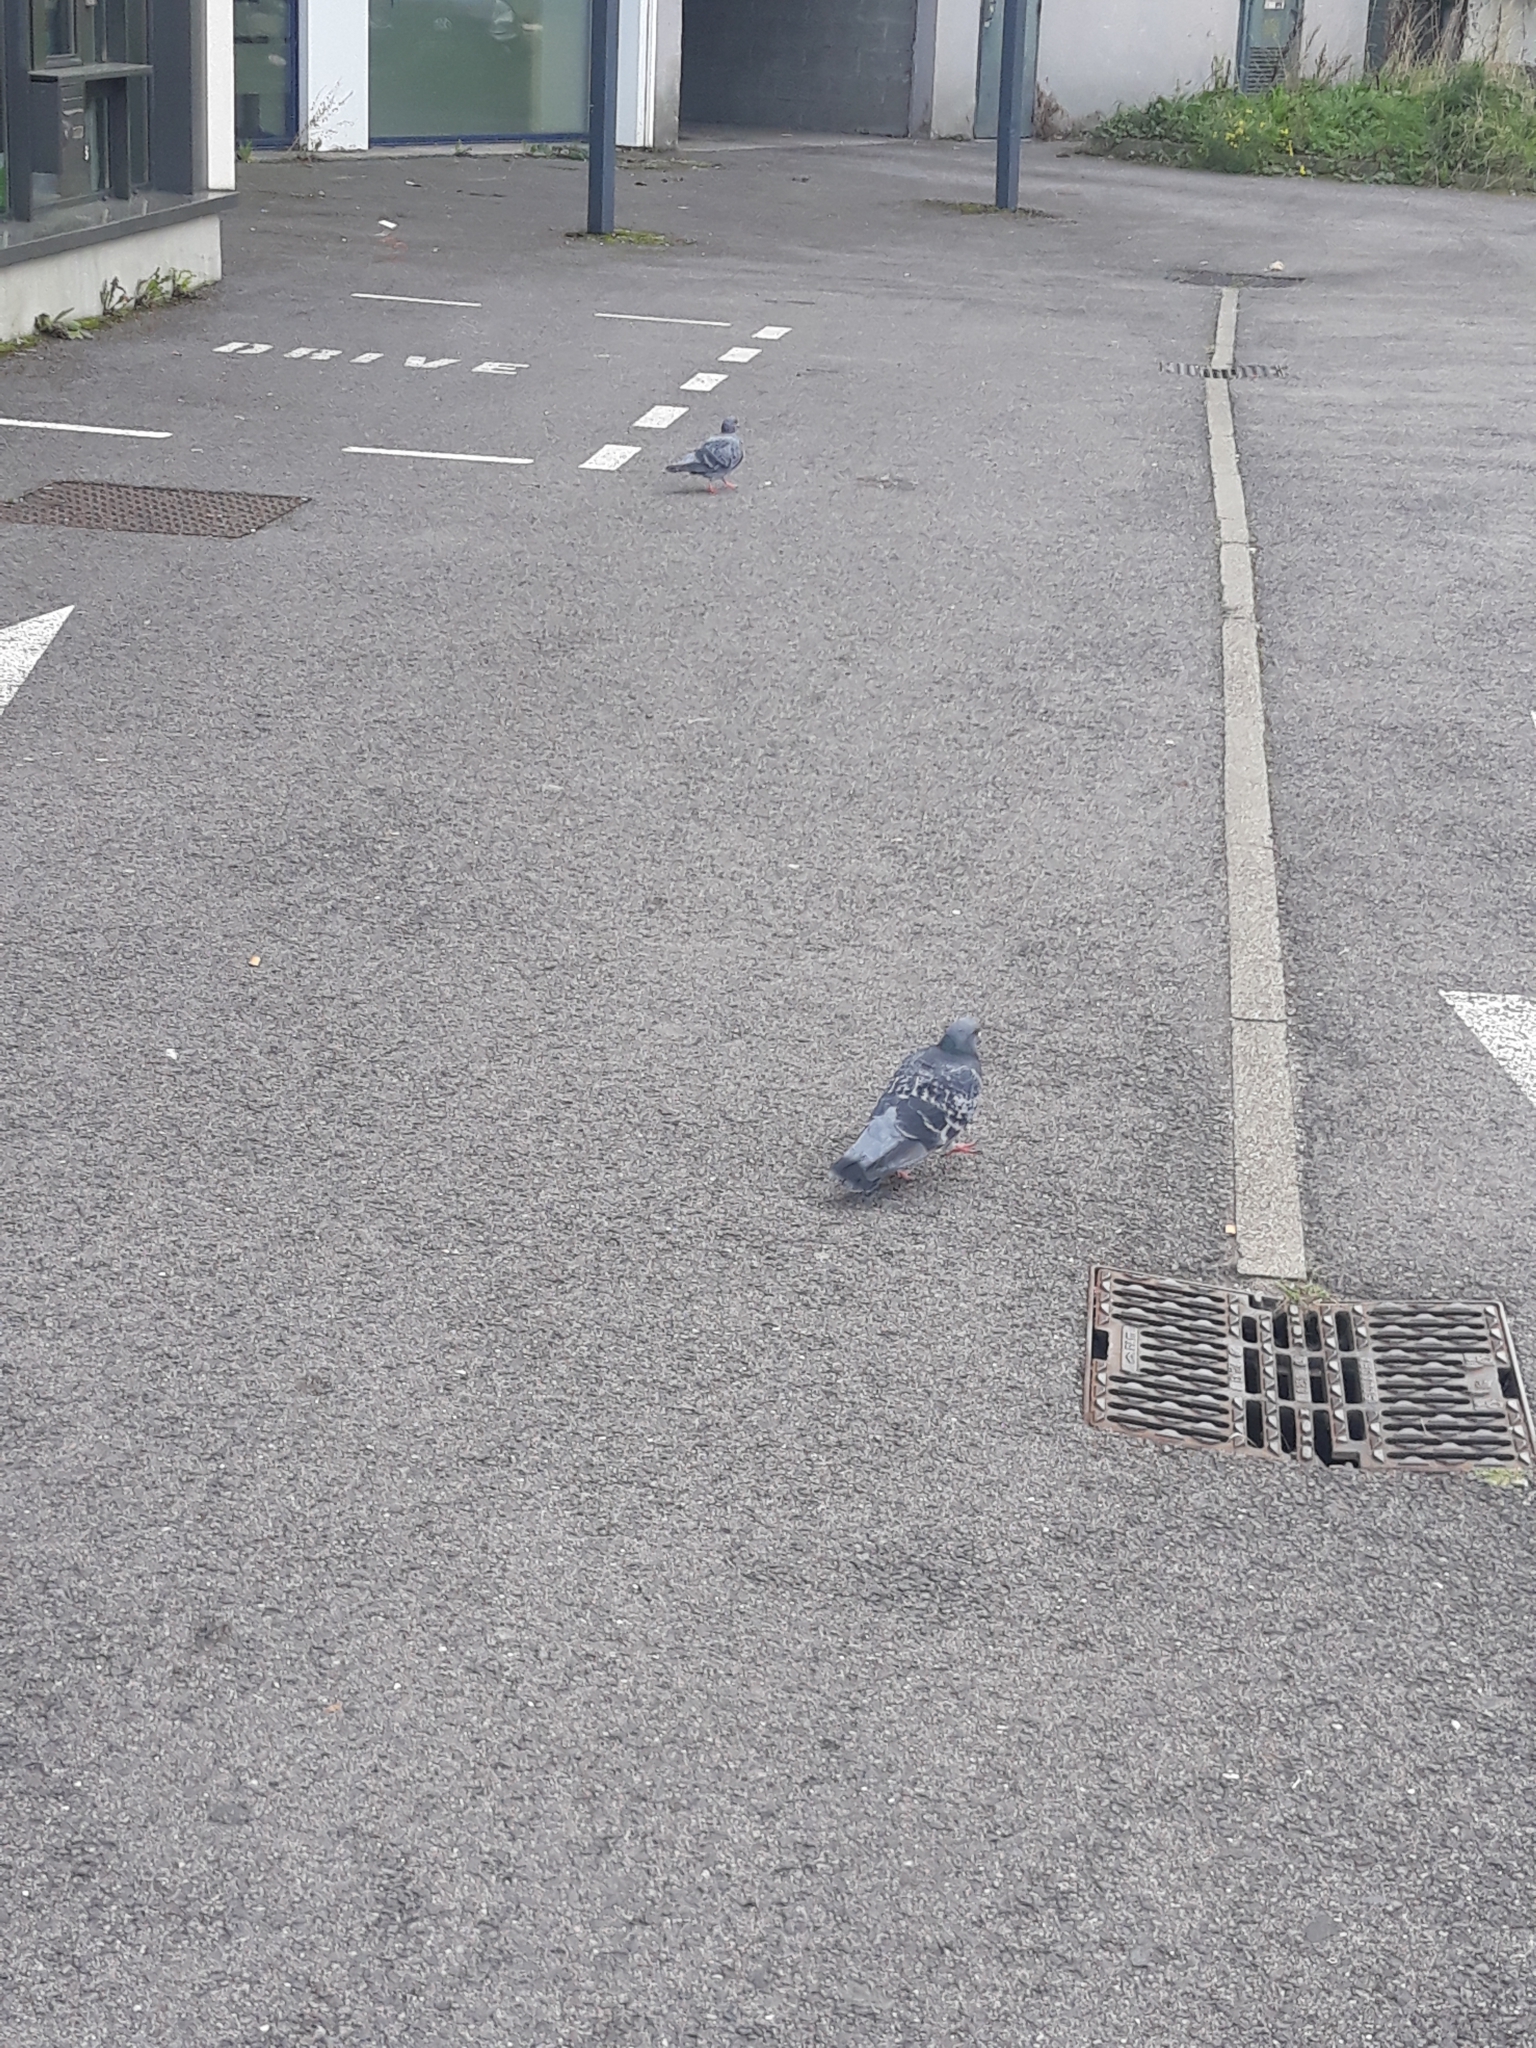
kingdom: Animalia
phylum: Chordata
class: Aves
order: Columbiformes
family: Columbidae
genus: Columba
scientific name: Columba livia
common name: Rock pigeon
